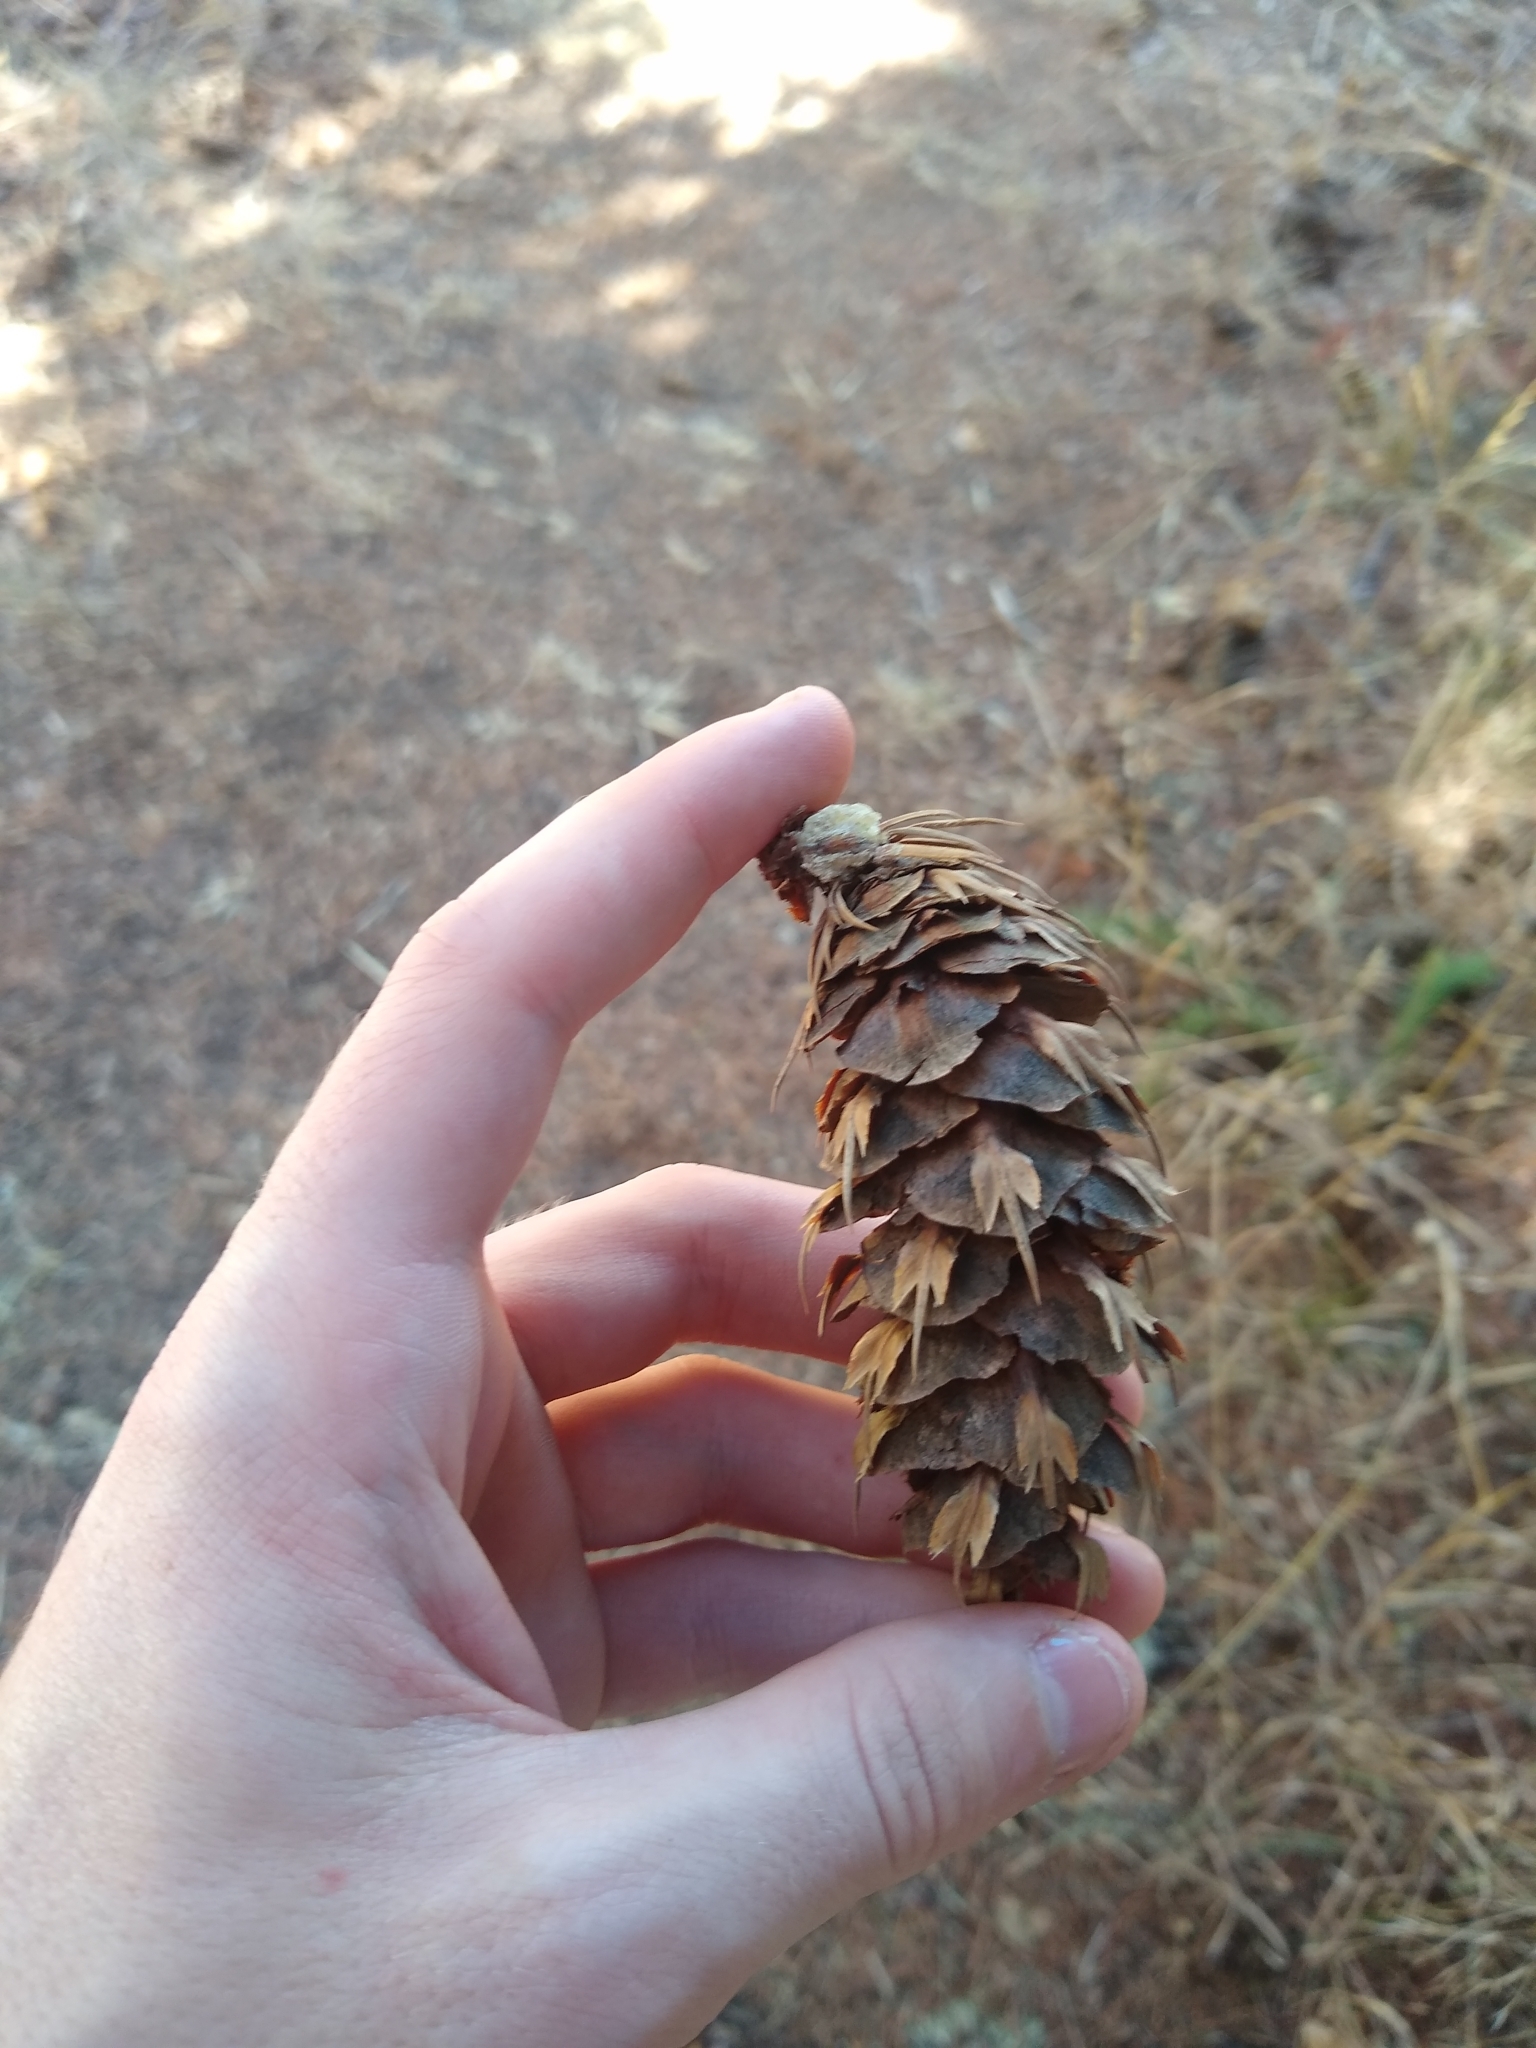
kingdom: Plantae
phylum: Tracheophyta
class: Pinopsida
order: Pinales
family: Pinaceae
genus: Pseudotsuga
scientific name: Pseudotsuga menziesii
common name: Douglas fir
